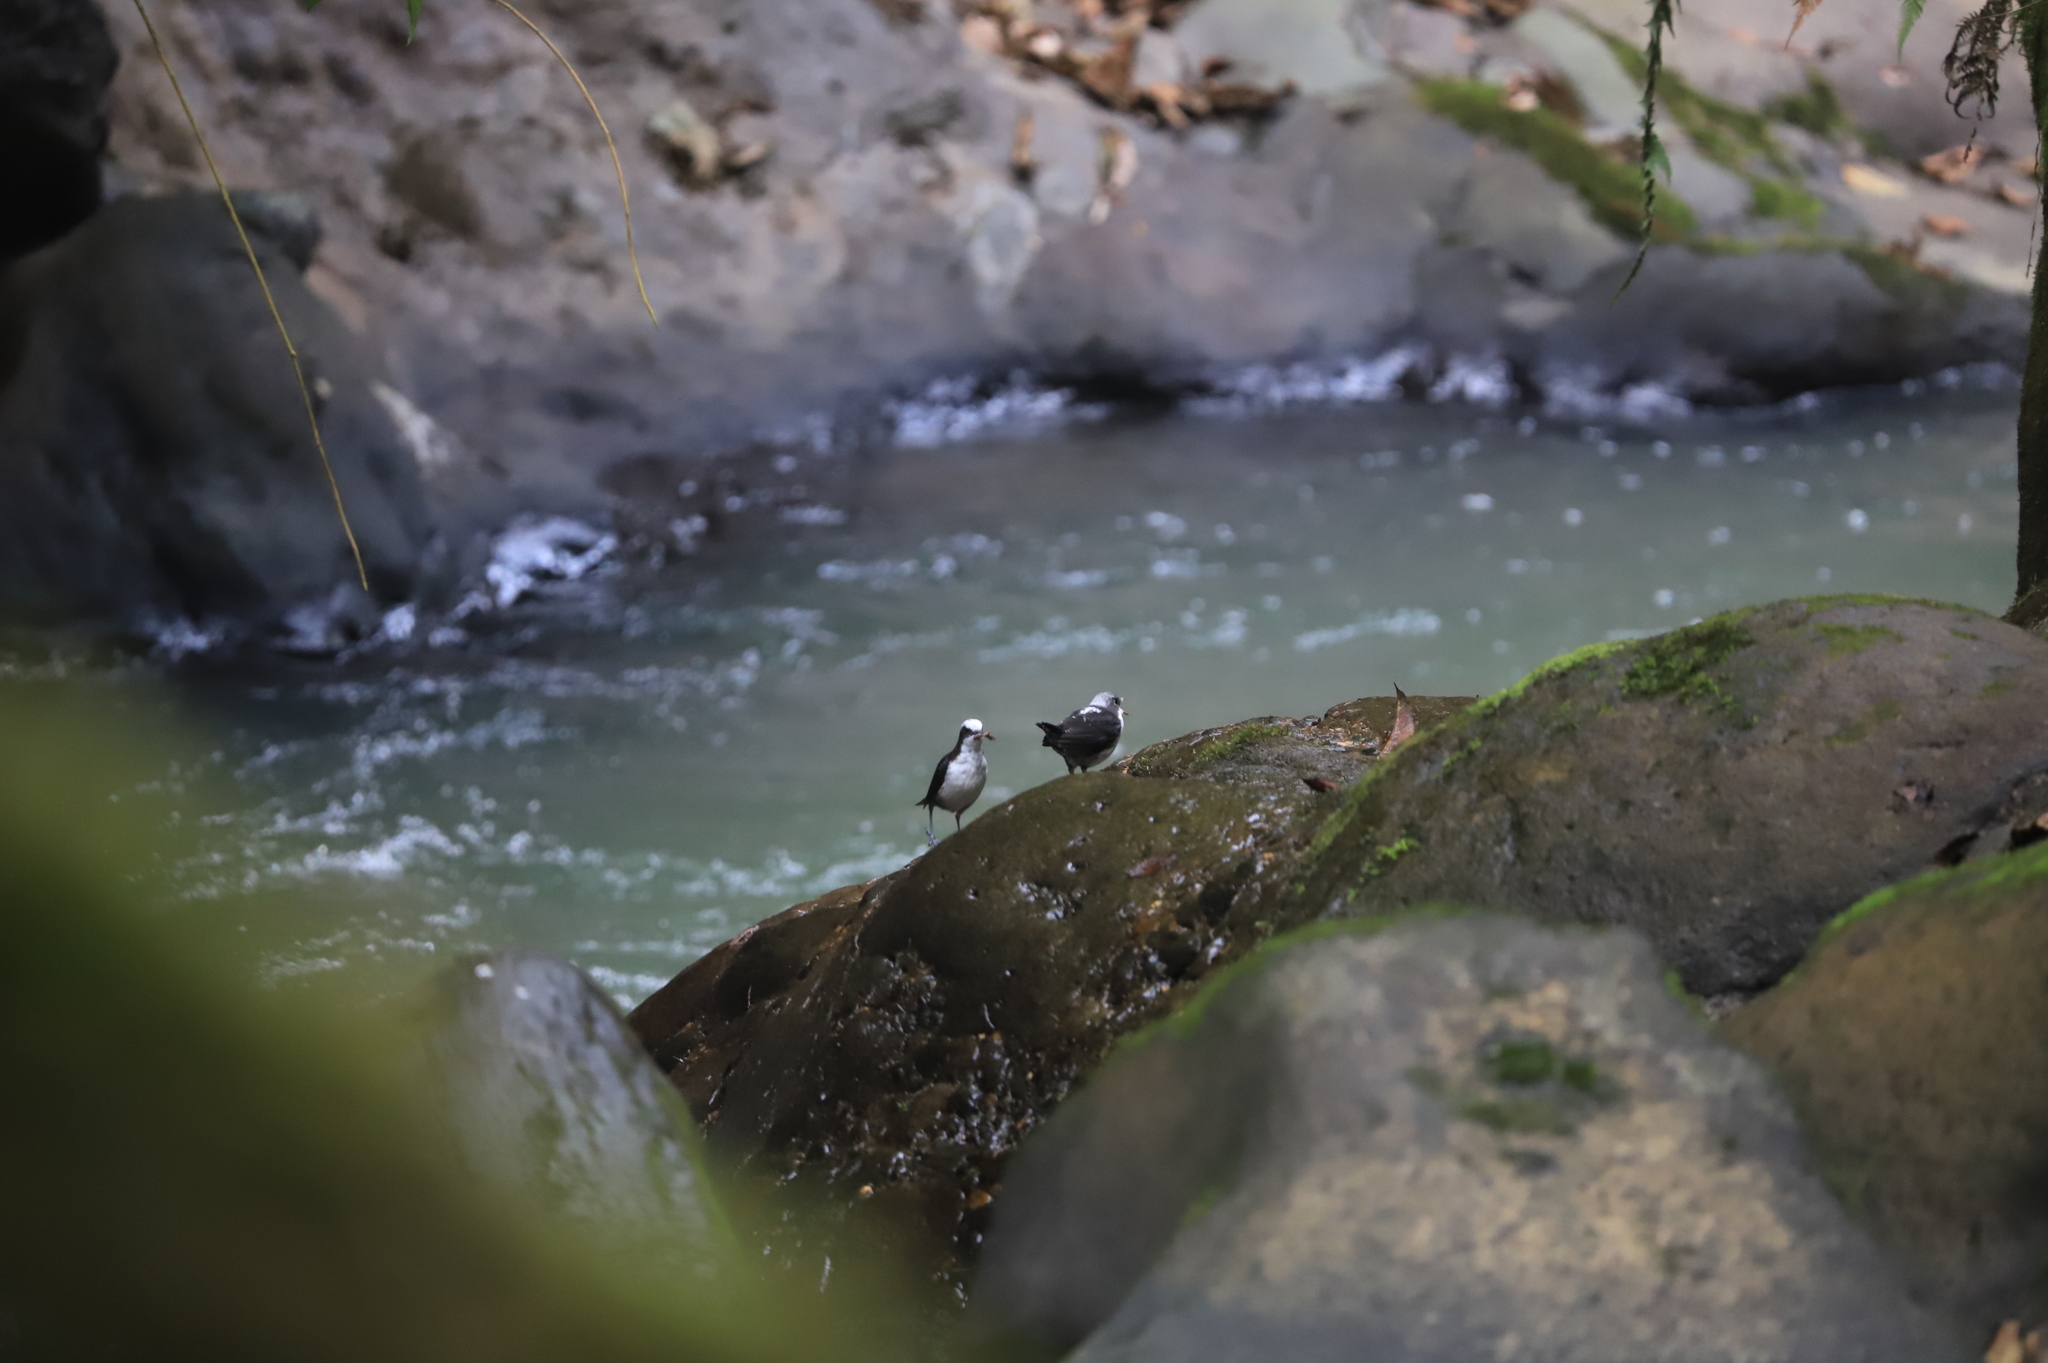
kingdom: Animalia
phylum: Chordata
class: Aves
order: Passeriformes
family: Cinclidae
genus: Cinclus
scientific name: Cinclus leucocephalus
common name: White-capped dipper
